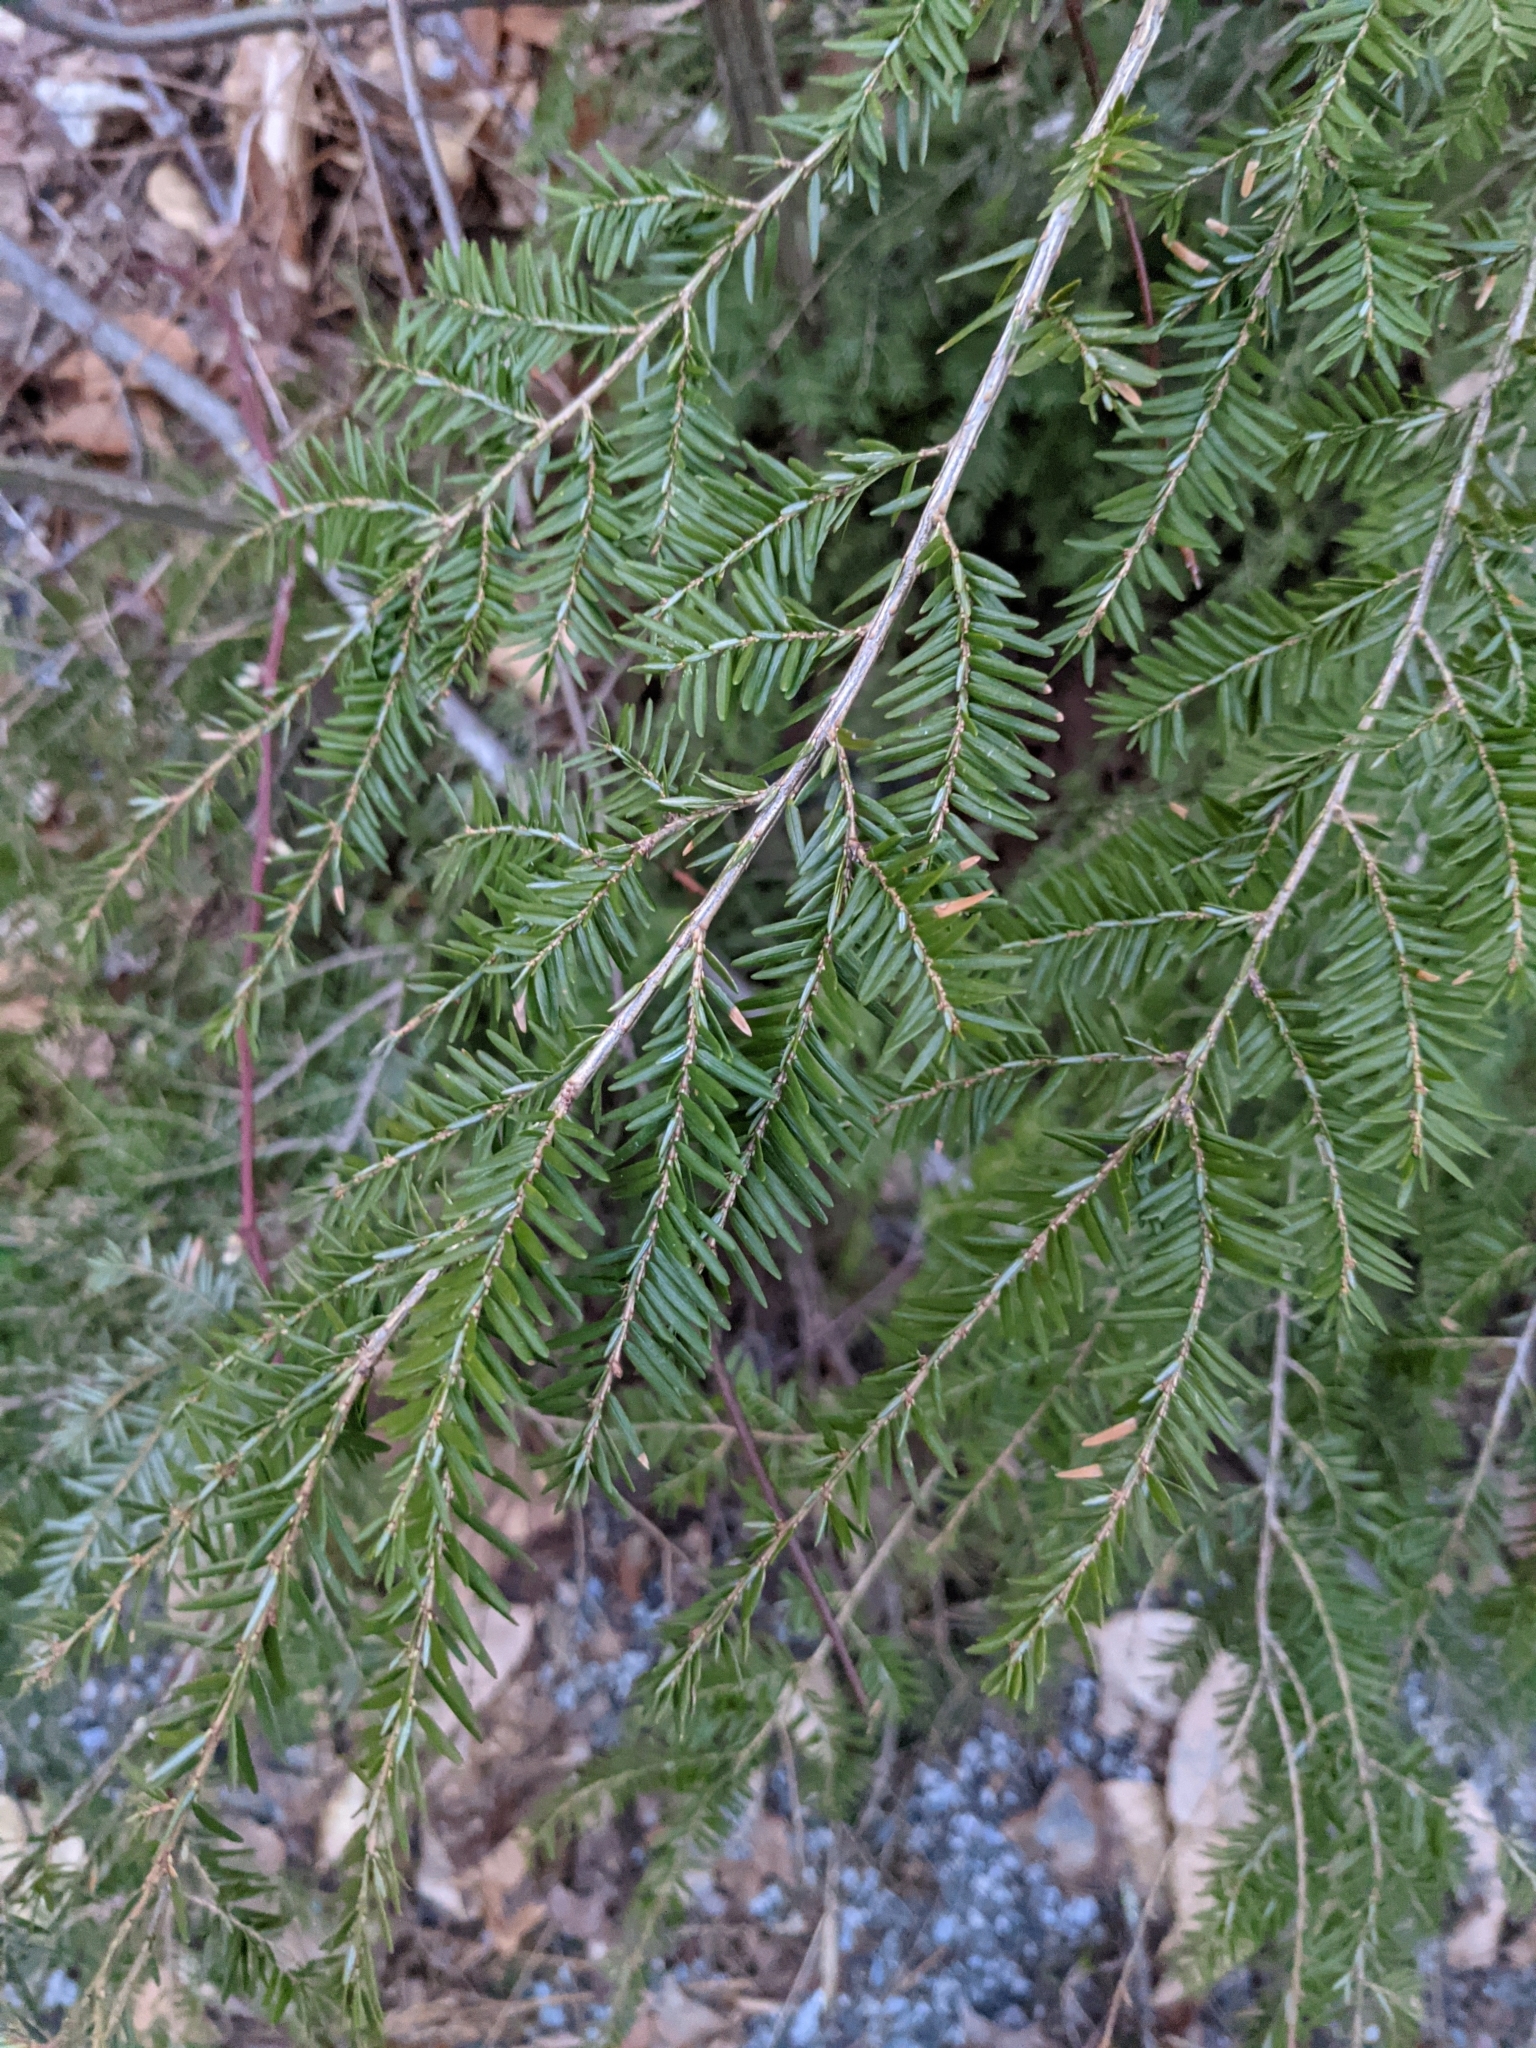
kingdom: Plantae
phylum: Tracheophyta
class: Pinopsida
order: Pinales
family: Pinaceae
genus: Tsuga
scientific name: Tsuga canadensis
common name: Eastern hemlock
